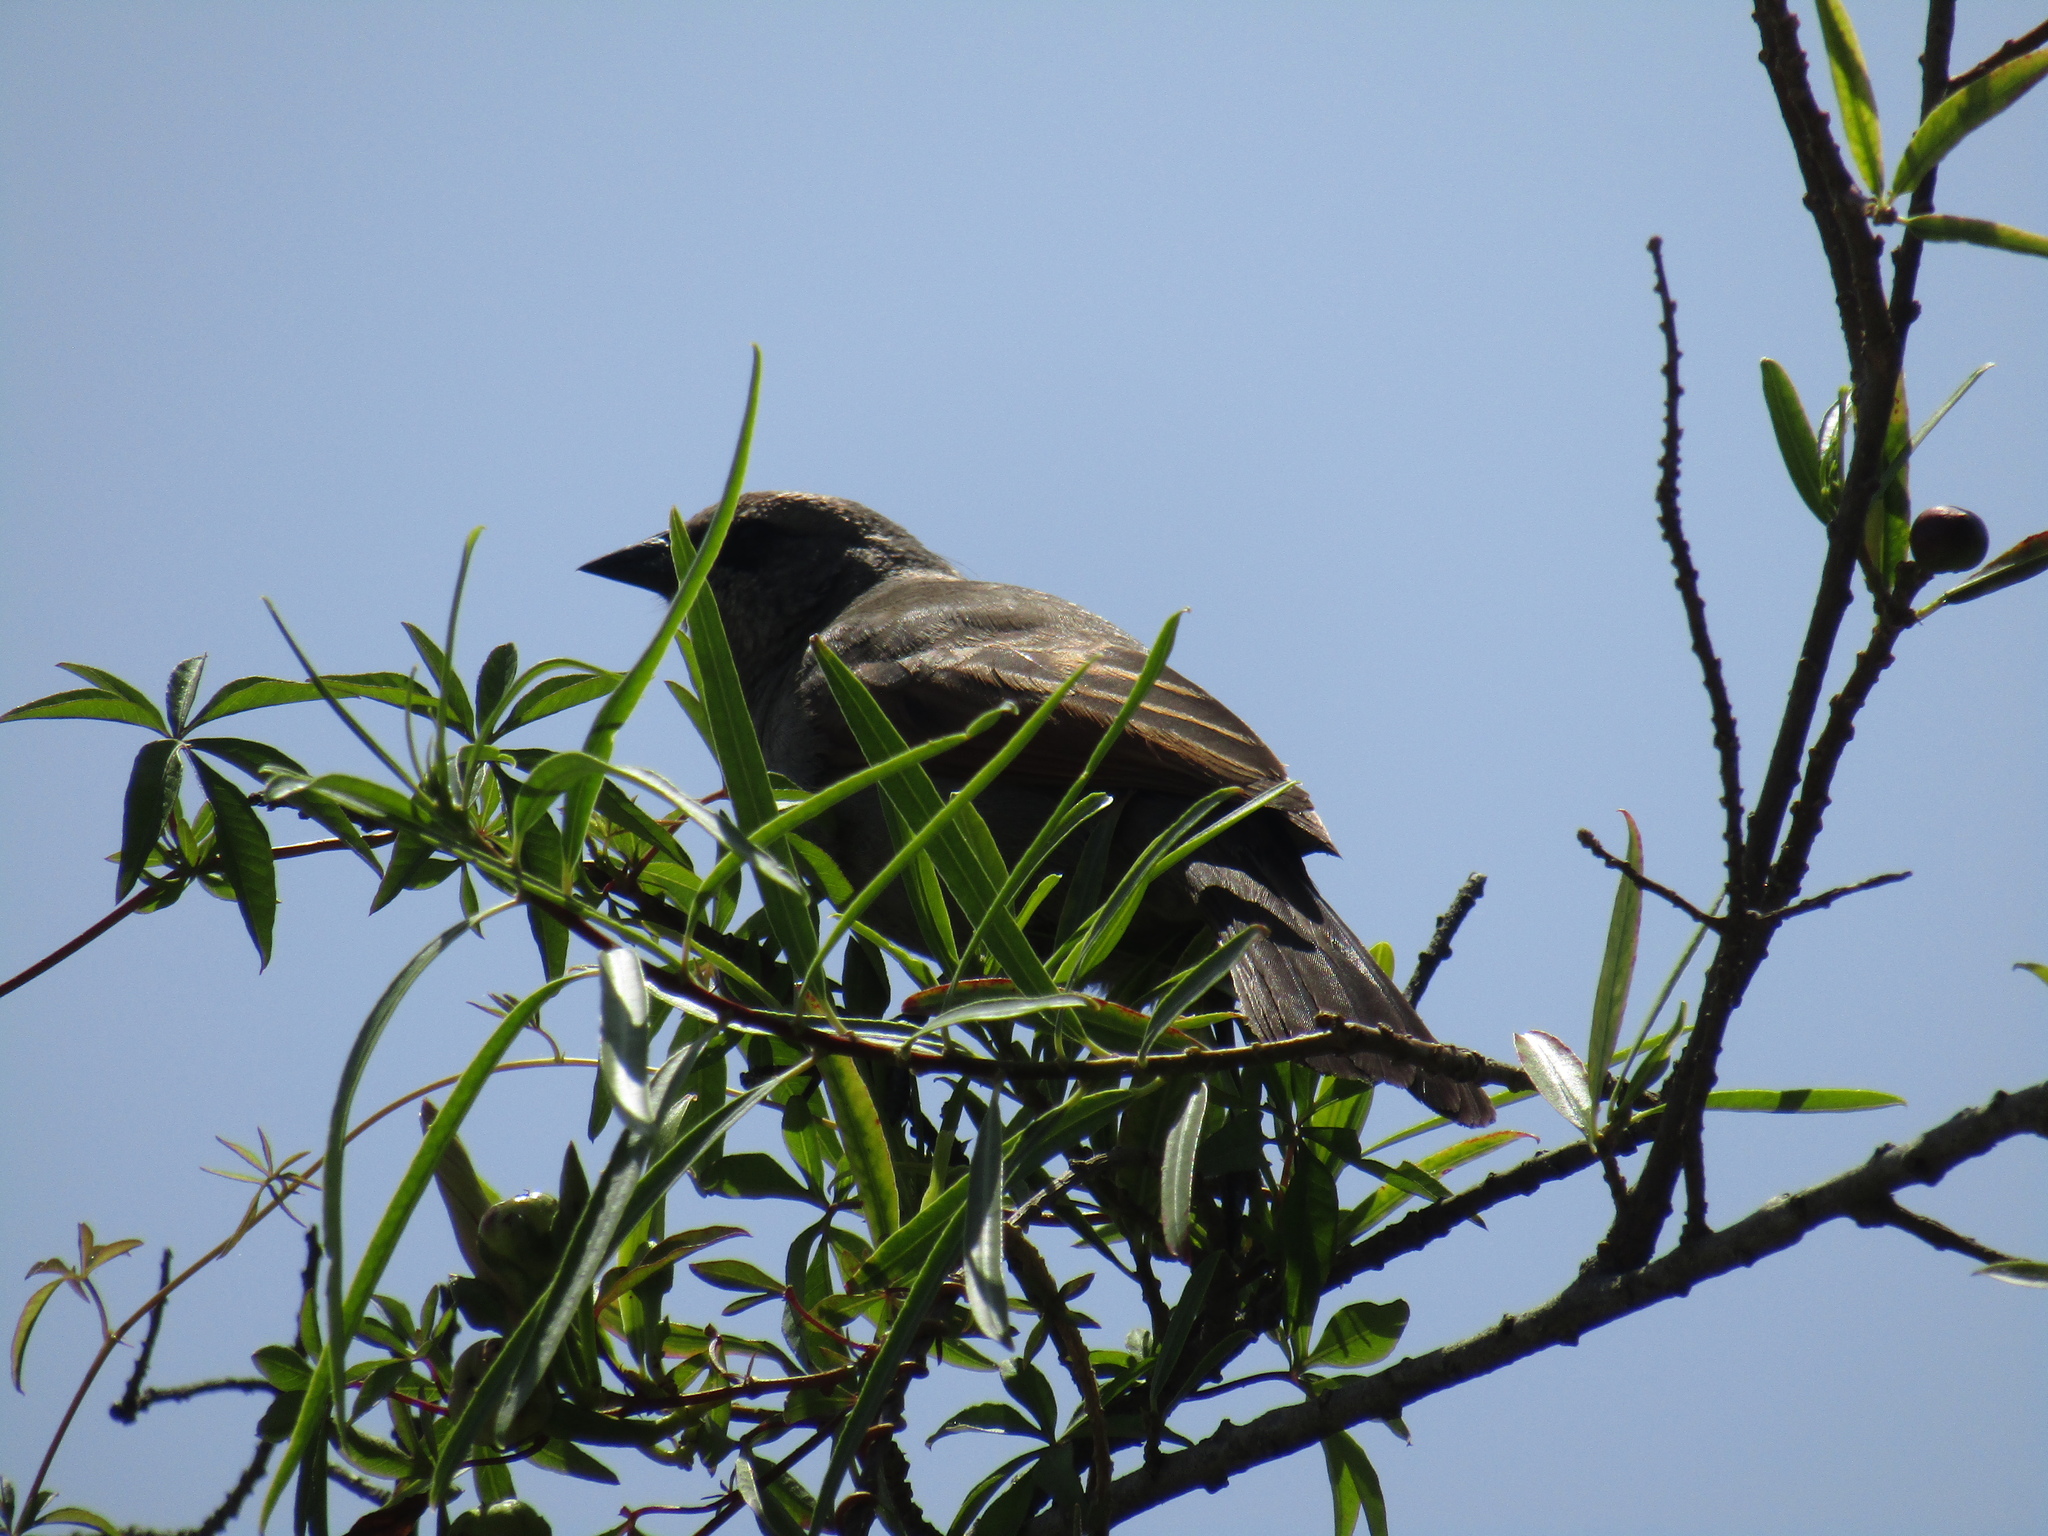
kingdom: Animalia
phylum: Chordata
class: Aves
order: Passeriformes
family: Icteridae
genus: Agelaioides
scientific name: Agelaioides badius
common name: Baywing
